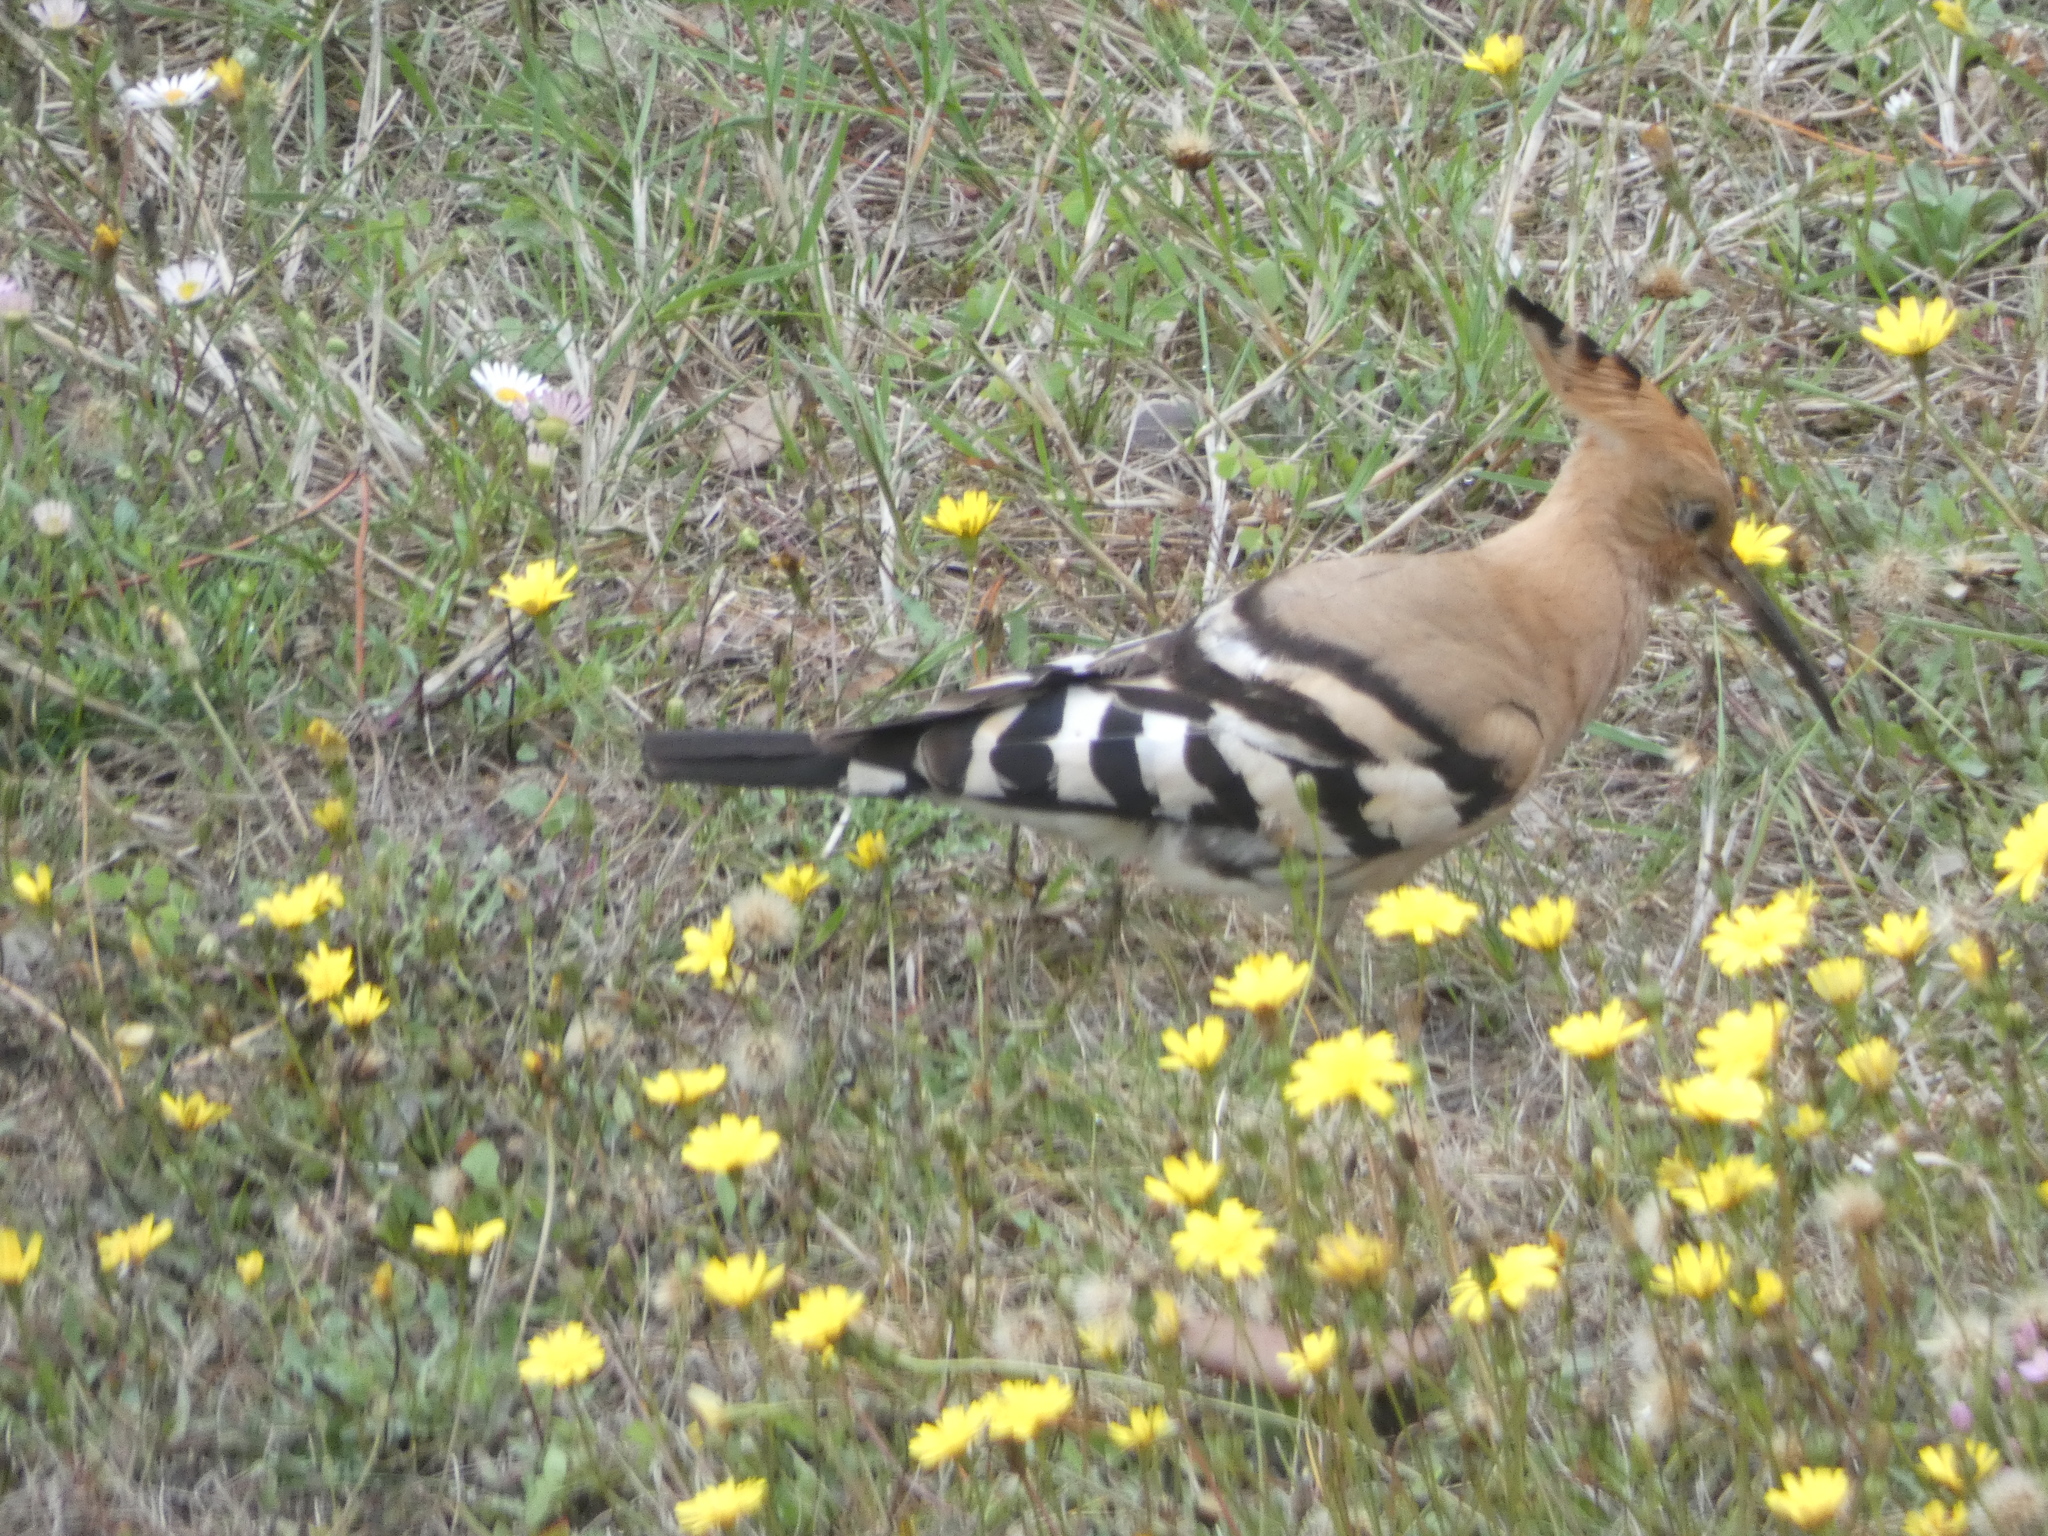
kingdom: Animalia
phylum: Chordata
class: Aves
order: Bucerotiformes
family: Upupidae
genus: Upupa
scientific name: Upupa epops
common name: Eurasian hoopoe
